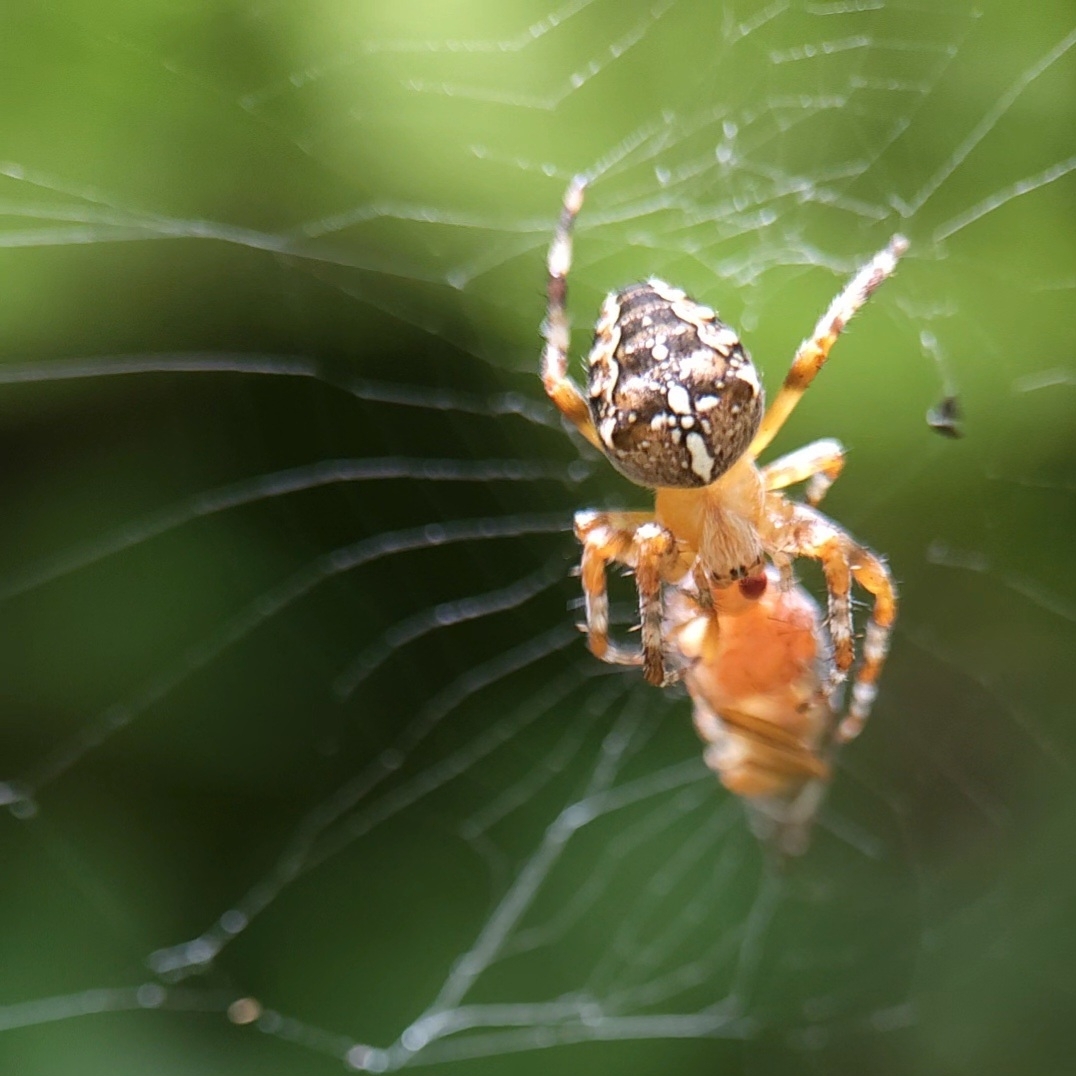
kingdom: Animalia
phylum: Arthropoda
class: Arachnida
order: Araneae
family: Araneidae
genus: Araneus
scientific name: Araneus diadematus
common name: Cross orbweaver
